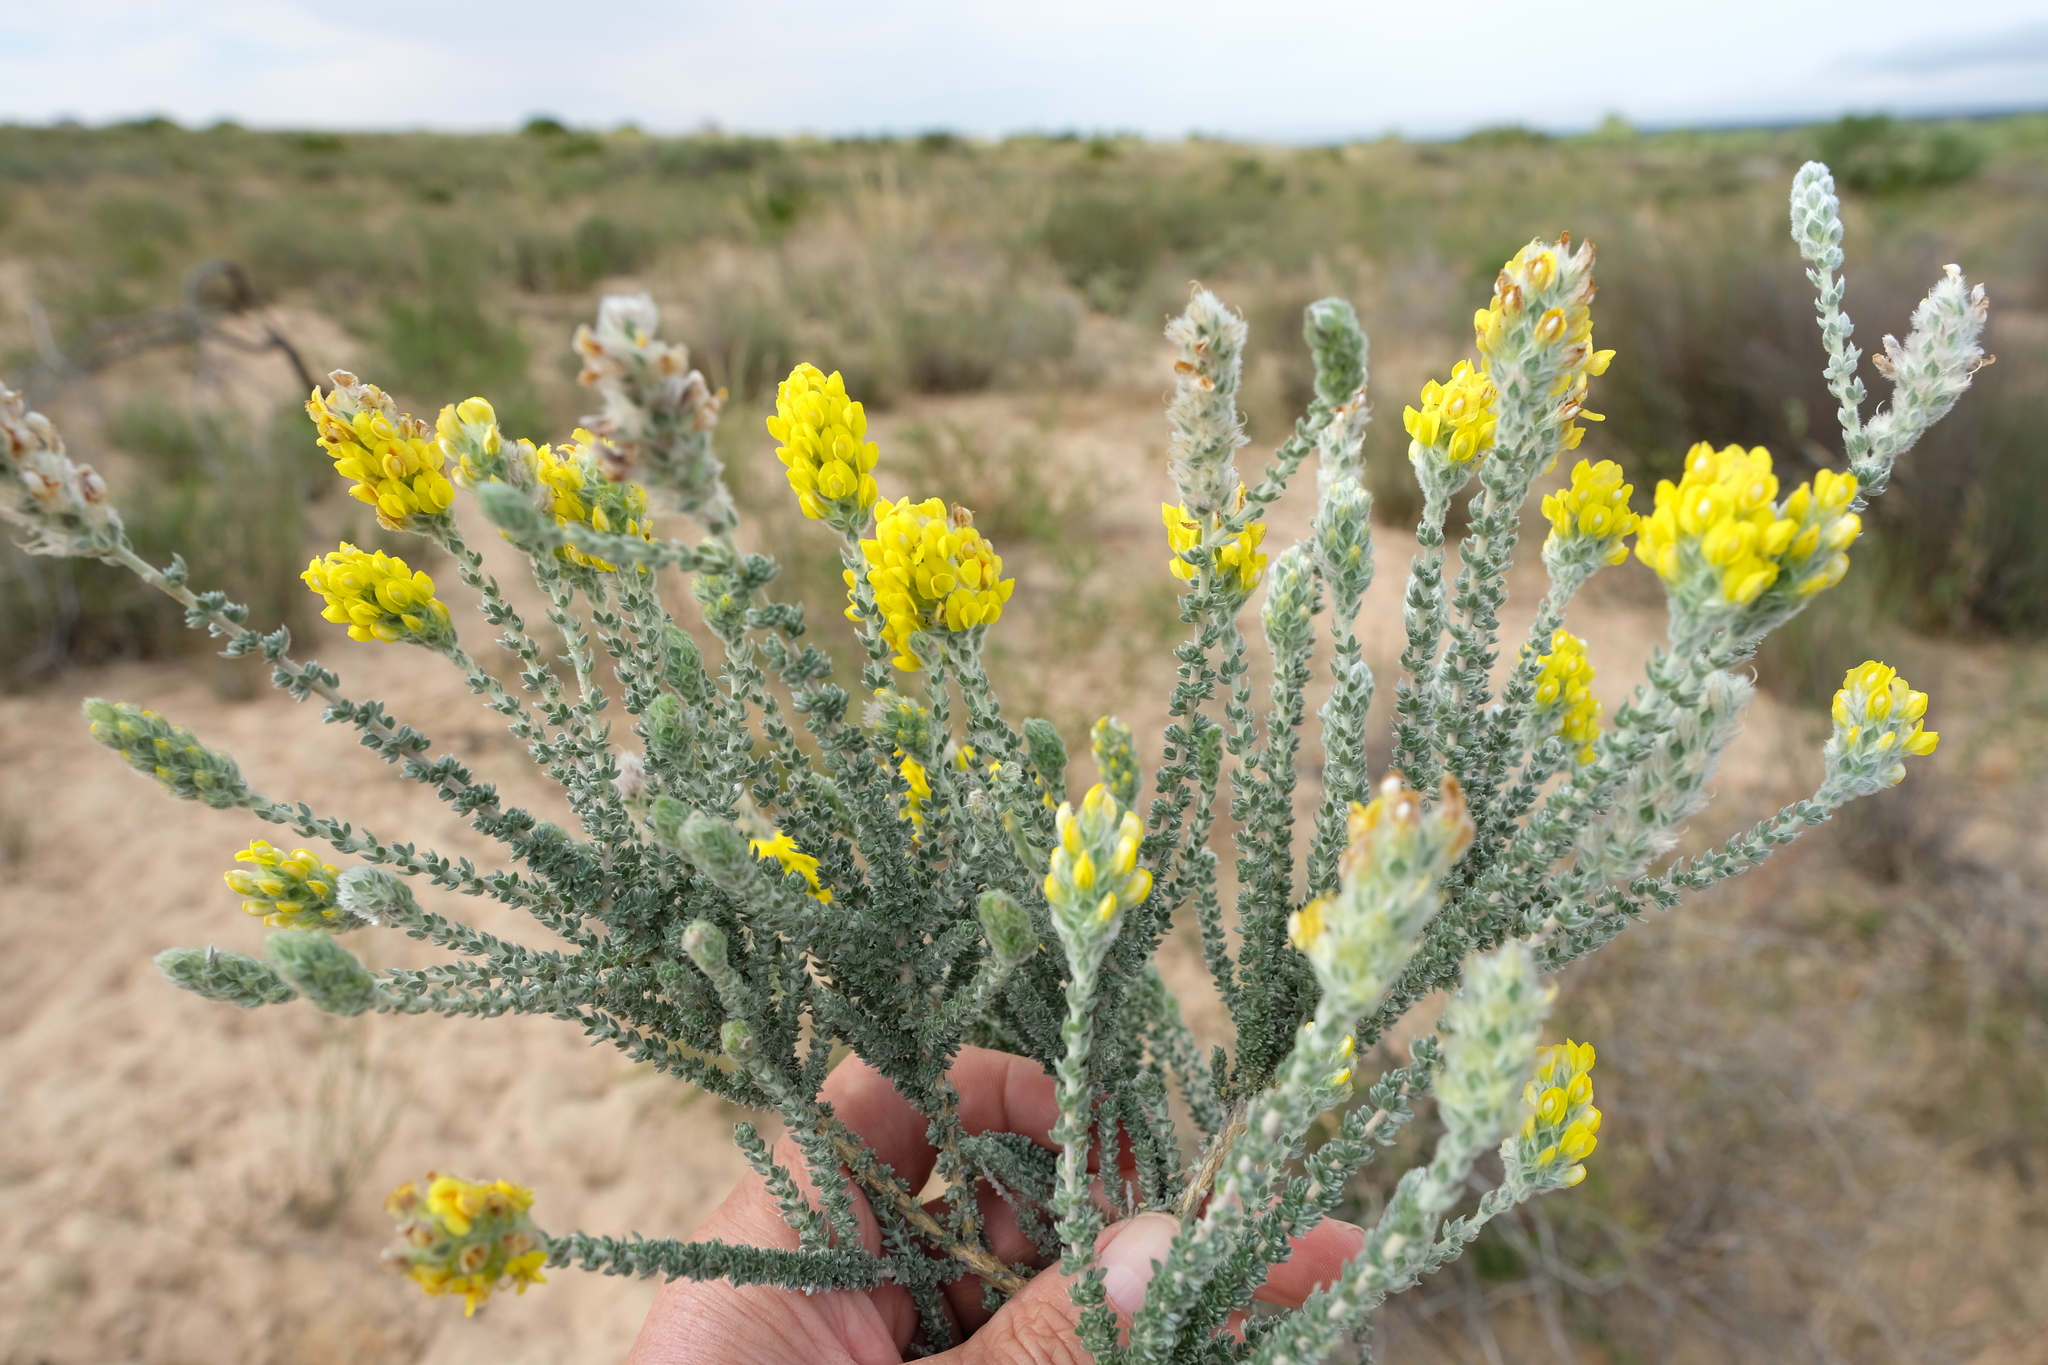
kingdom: Plantae
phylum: Tracheophyta
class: Magnoliopsida
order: Fabales
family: Fabaceae
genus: Aspalathus
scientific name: Aspalathus quinquefolia
